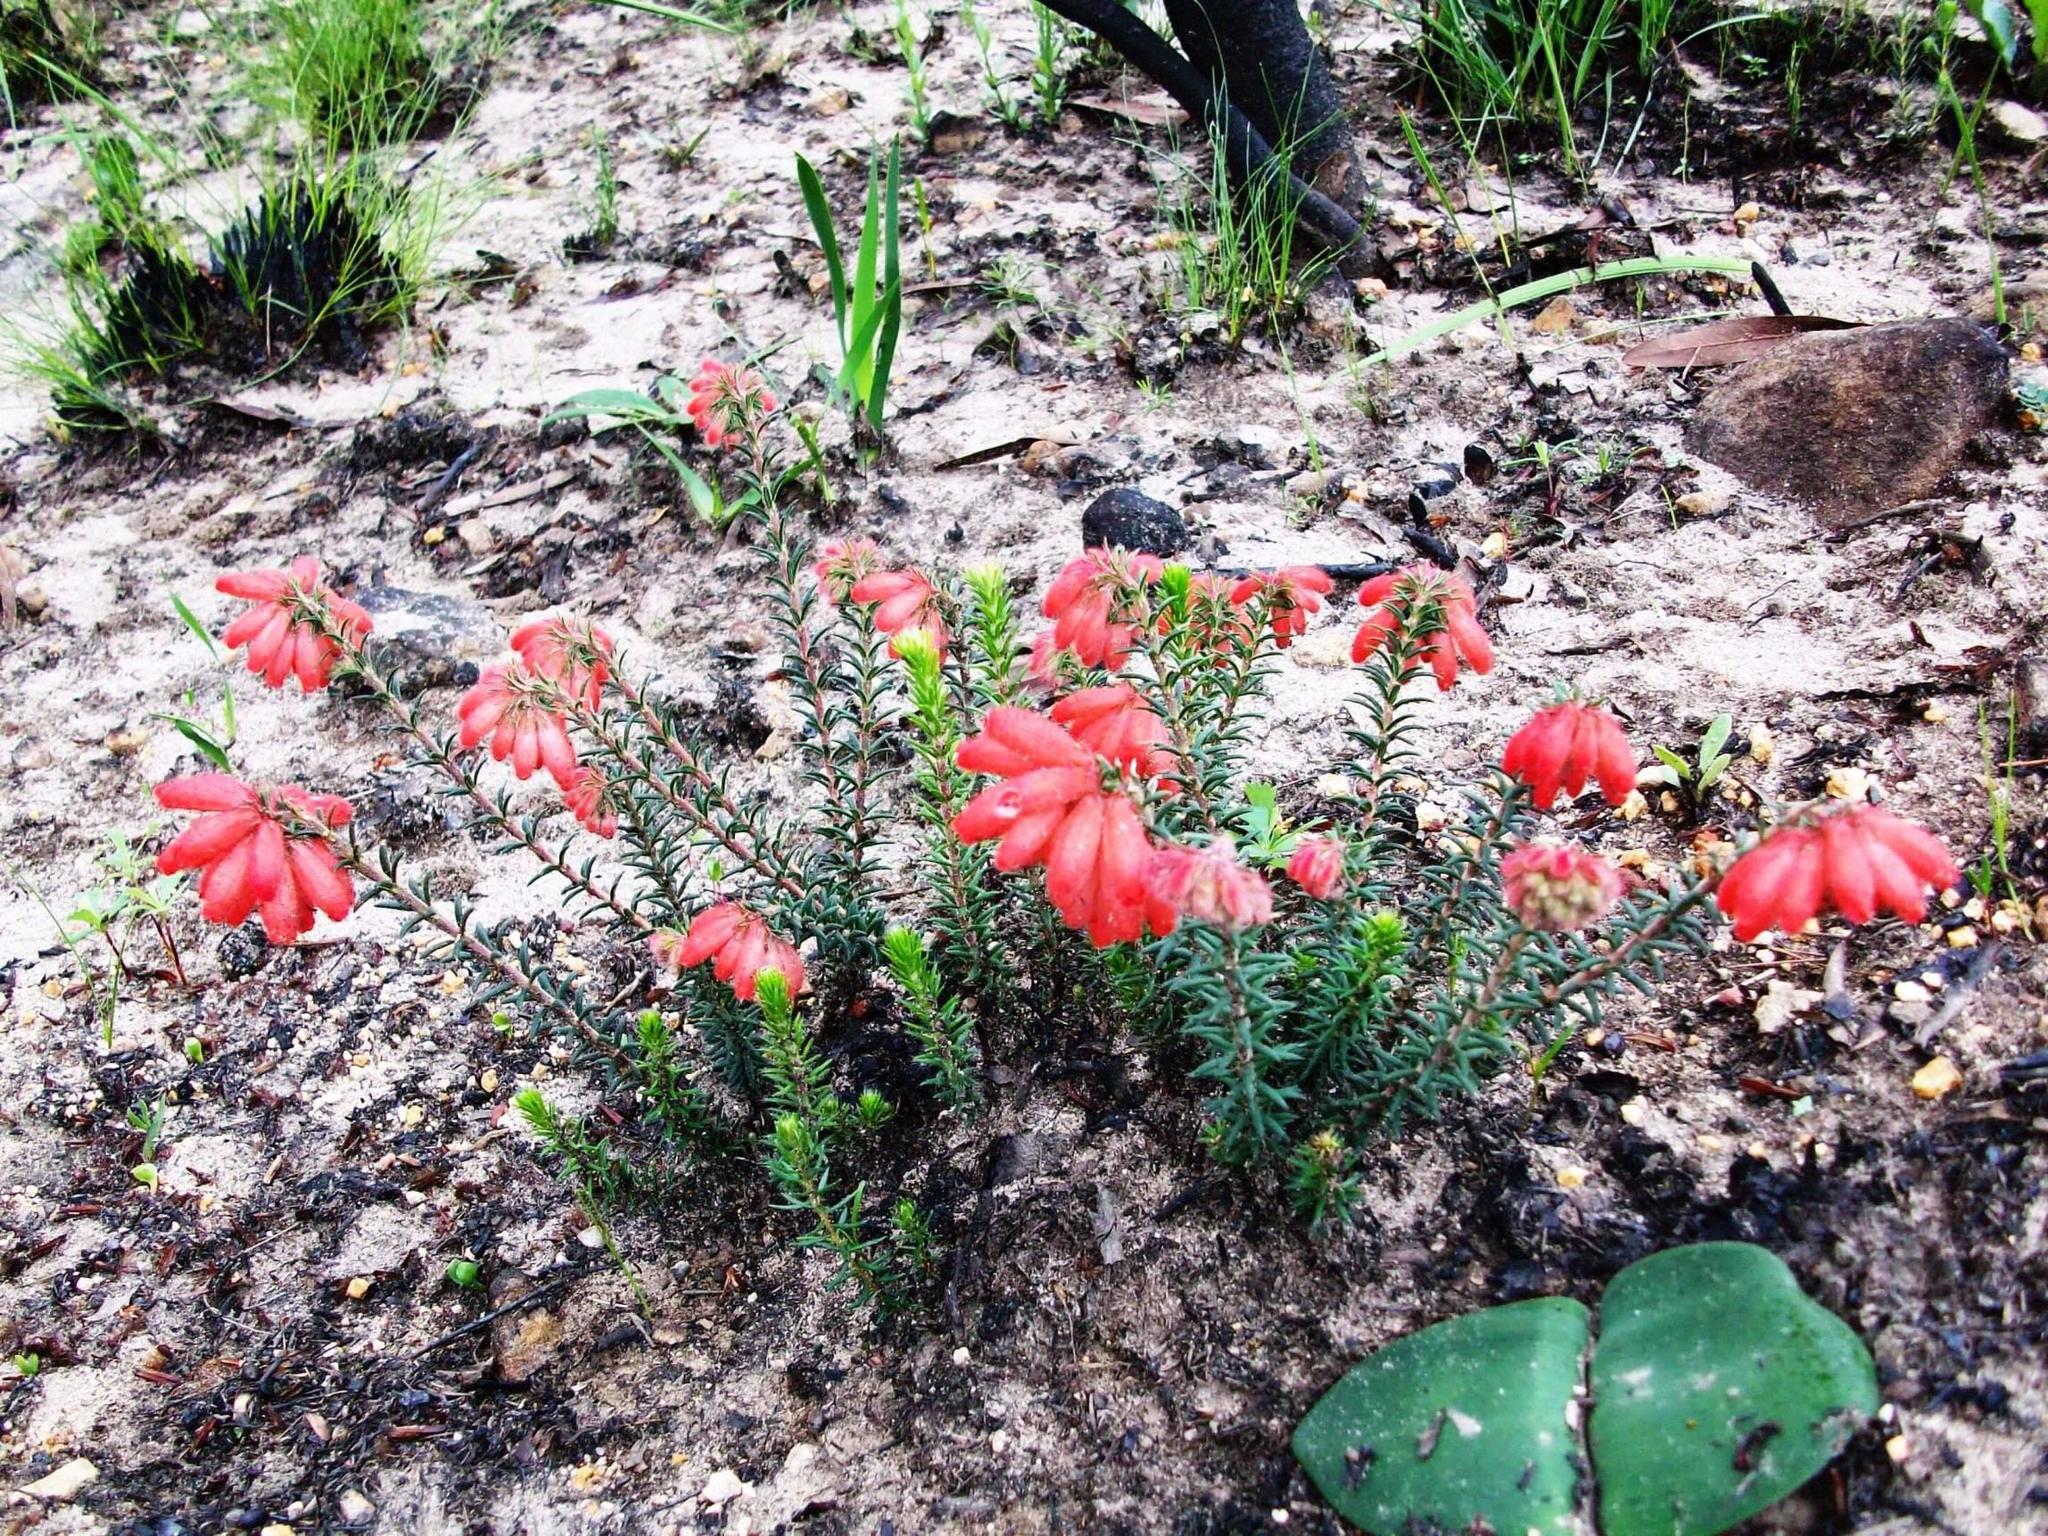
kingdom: Plantae
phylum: Tracheophyta
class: Magnoliopsida
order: Ericales
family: Ericaceae
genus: Erica
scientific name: Erica cerinthoides
